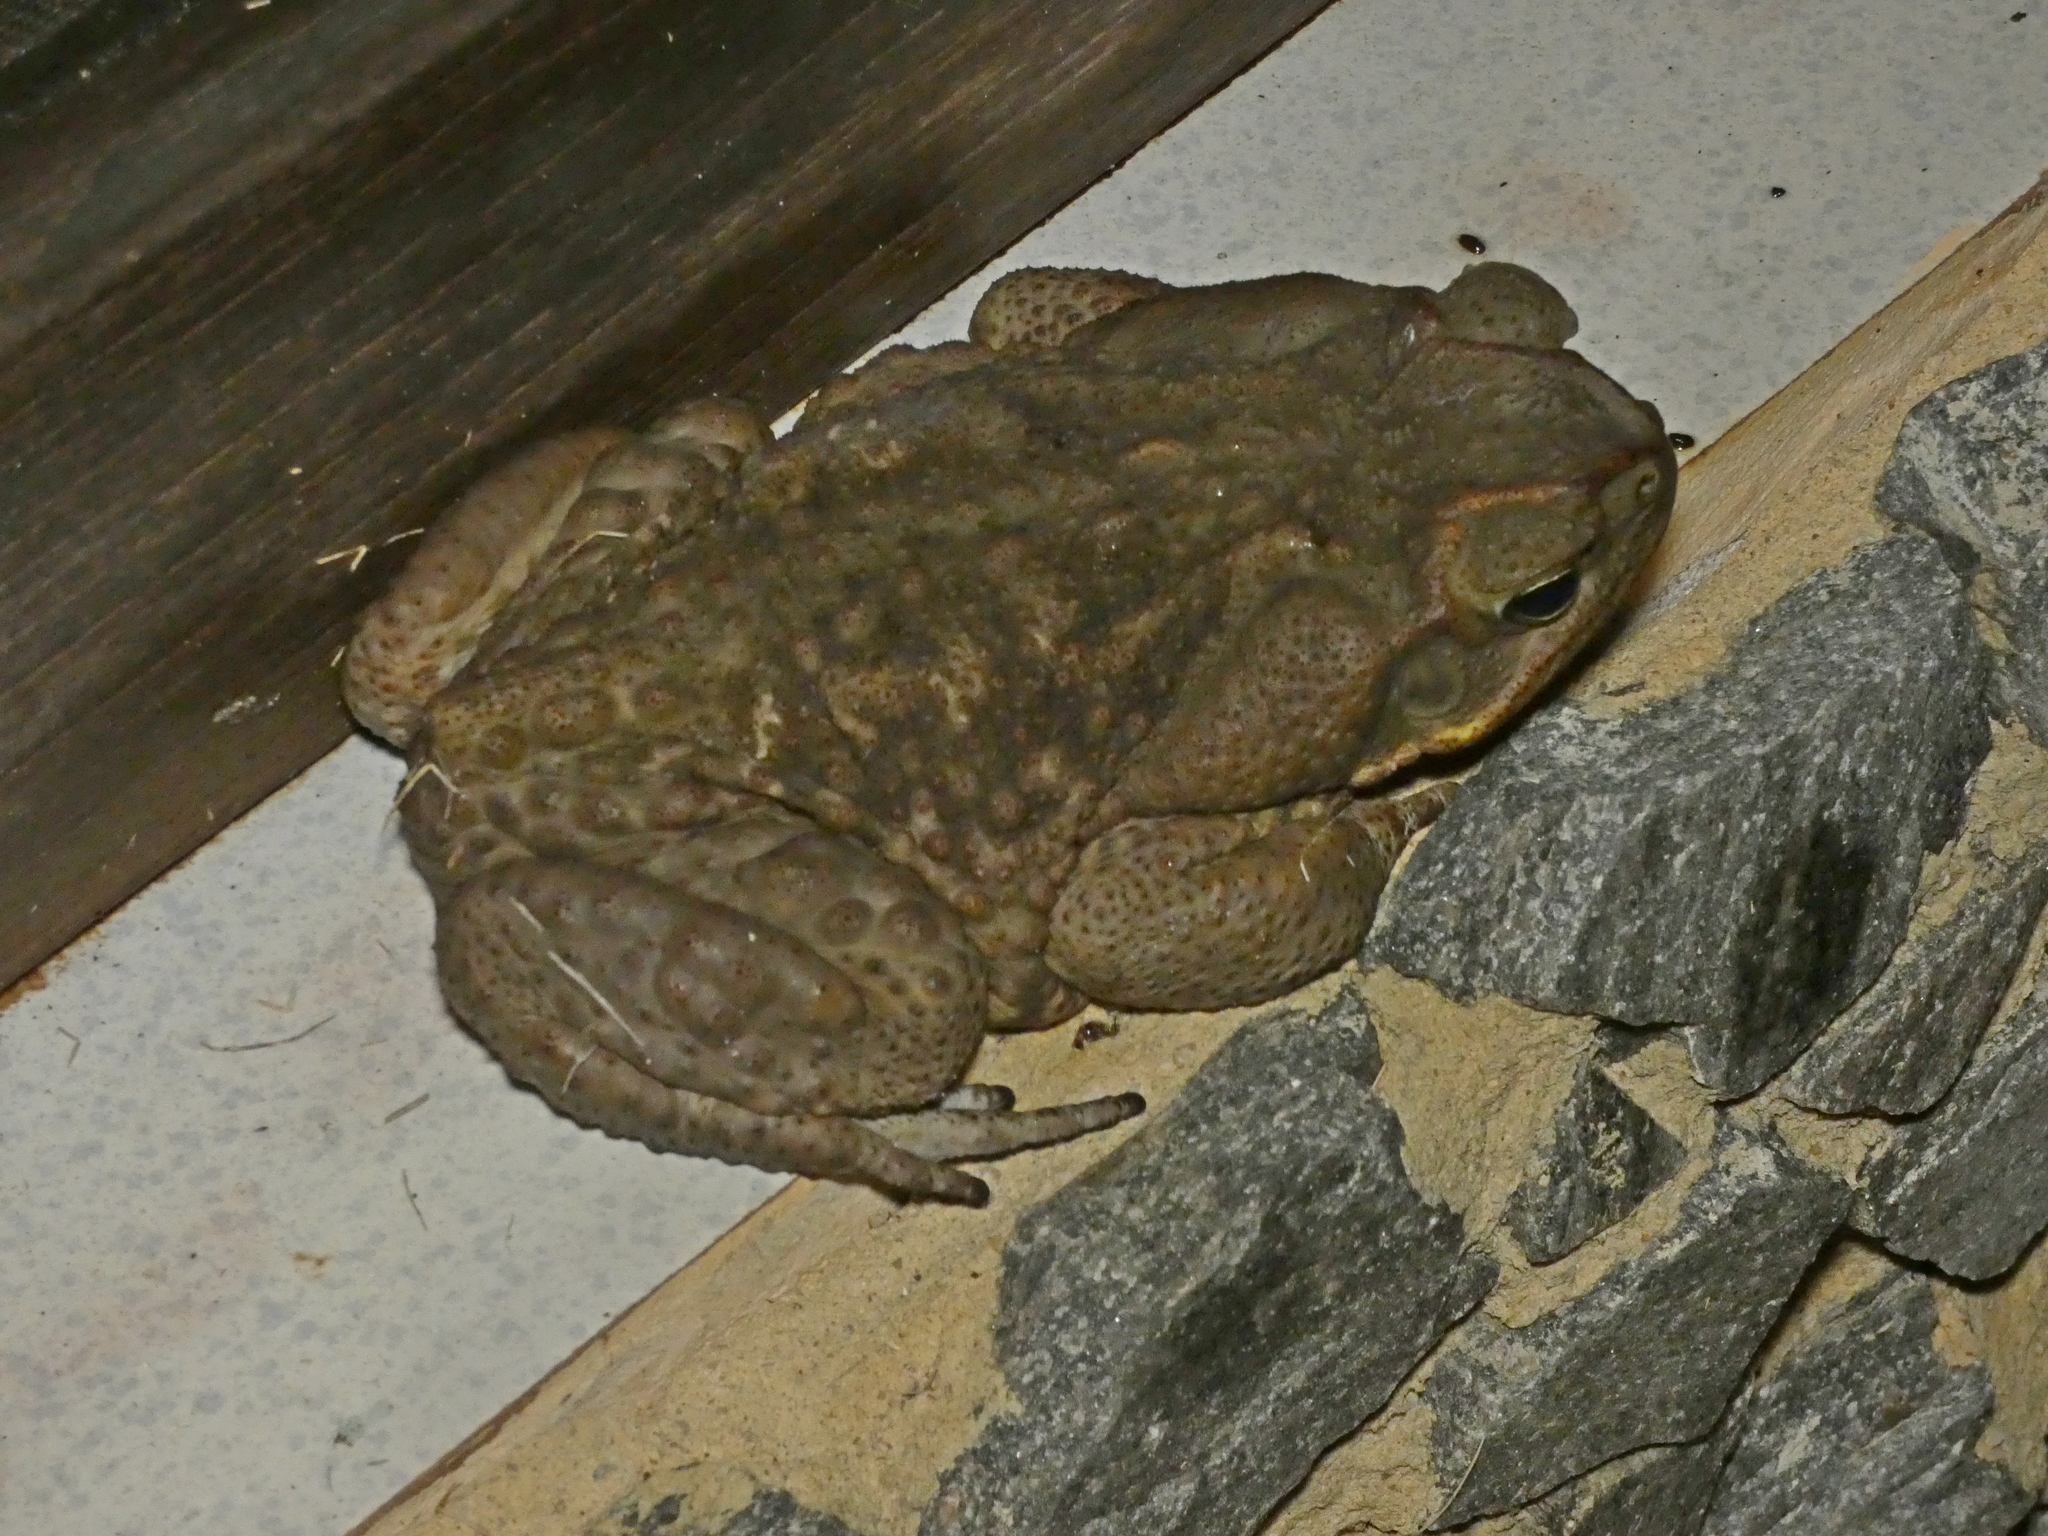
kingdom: Animalia
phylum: Chordata
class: Amphibia
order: Anura
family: Bufonidae
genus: Rhinella
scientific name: Rhinella diptycha
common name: Cope's toad
